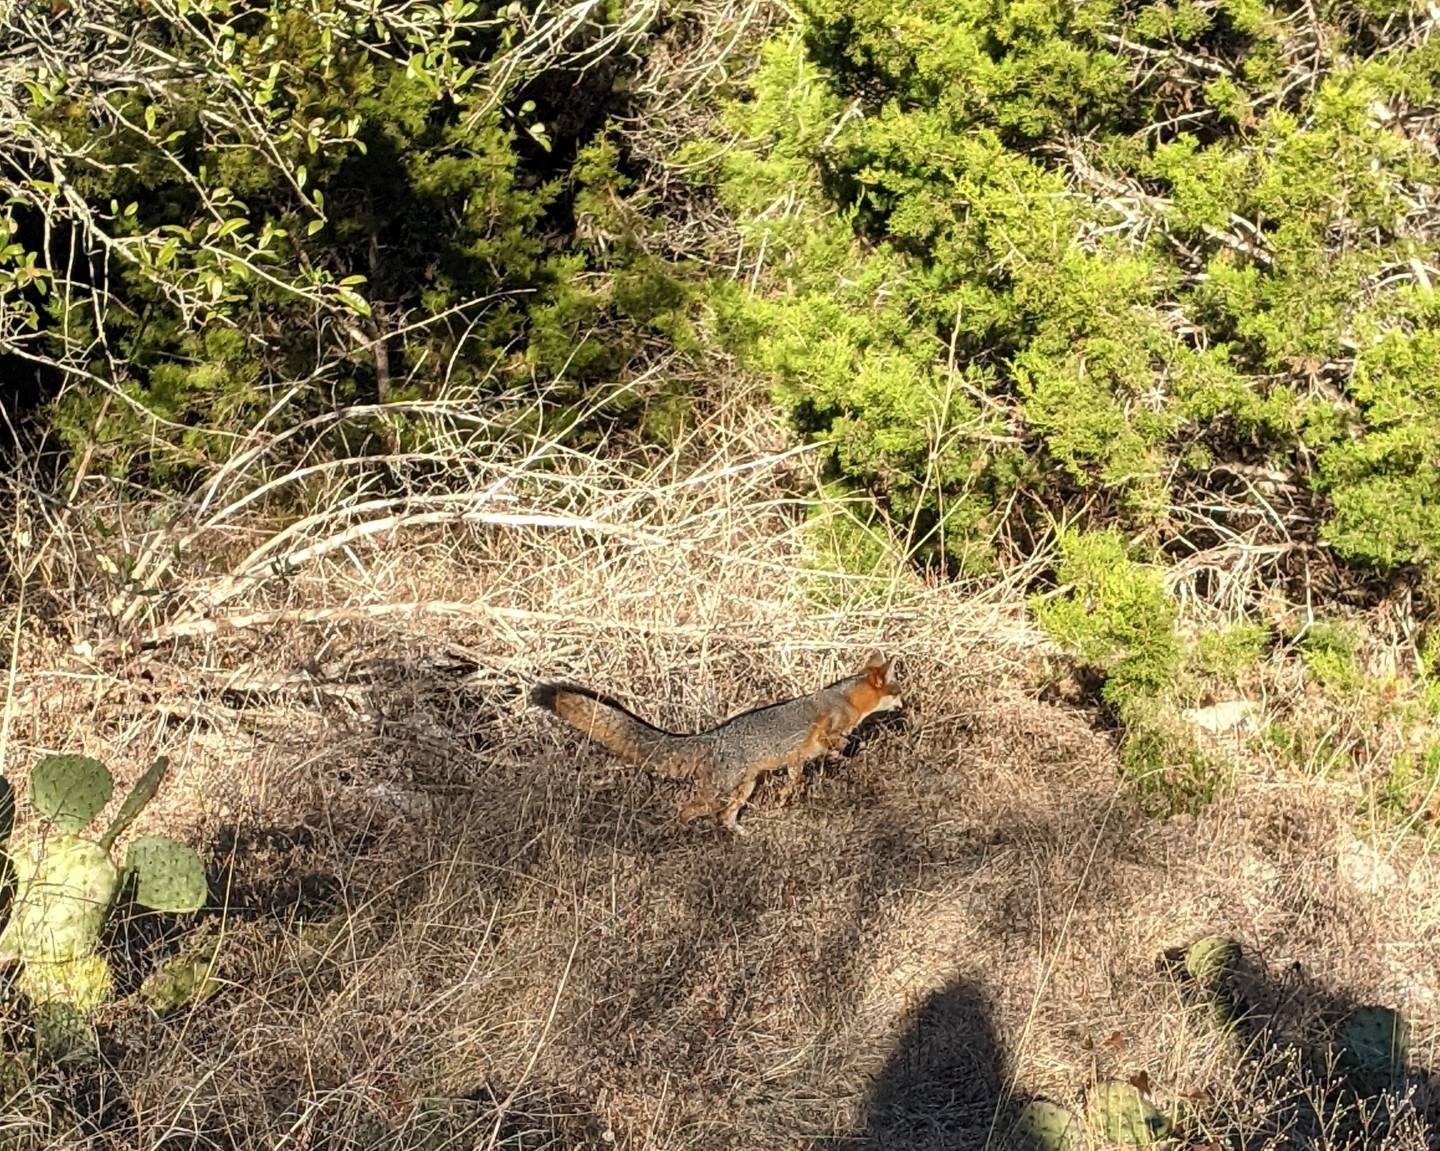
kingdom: Animalia
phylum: Chordata
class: Mammalia
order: Carnivora
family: Canidae
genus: Urocyon
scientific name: Urocyon cinereoargenteus
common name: Gray fox
